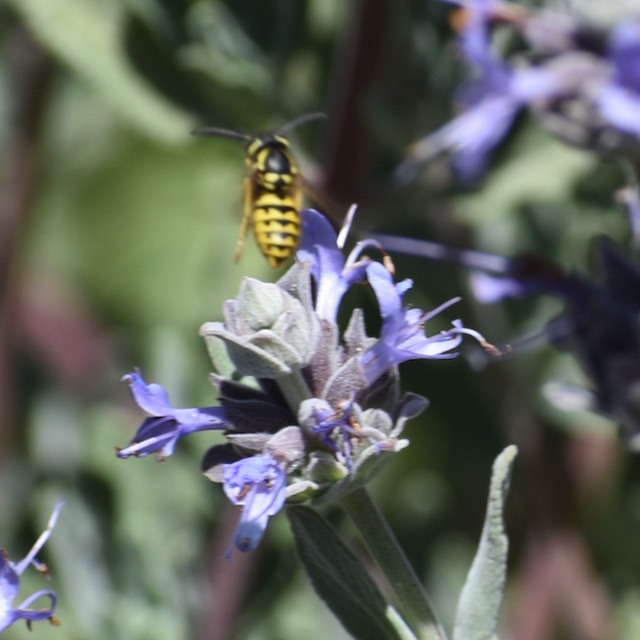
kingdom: Animalia
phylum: Arthropoda
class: Insecta
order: Hymenoptera
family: Vespidae
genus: Vespula
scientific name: Vespula pensylvanica
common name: Western yellowjacket
